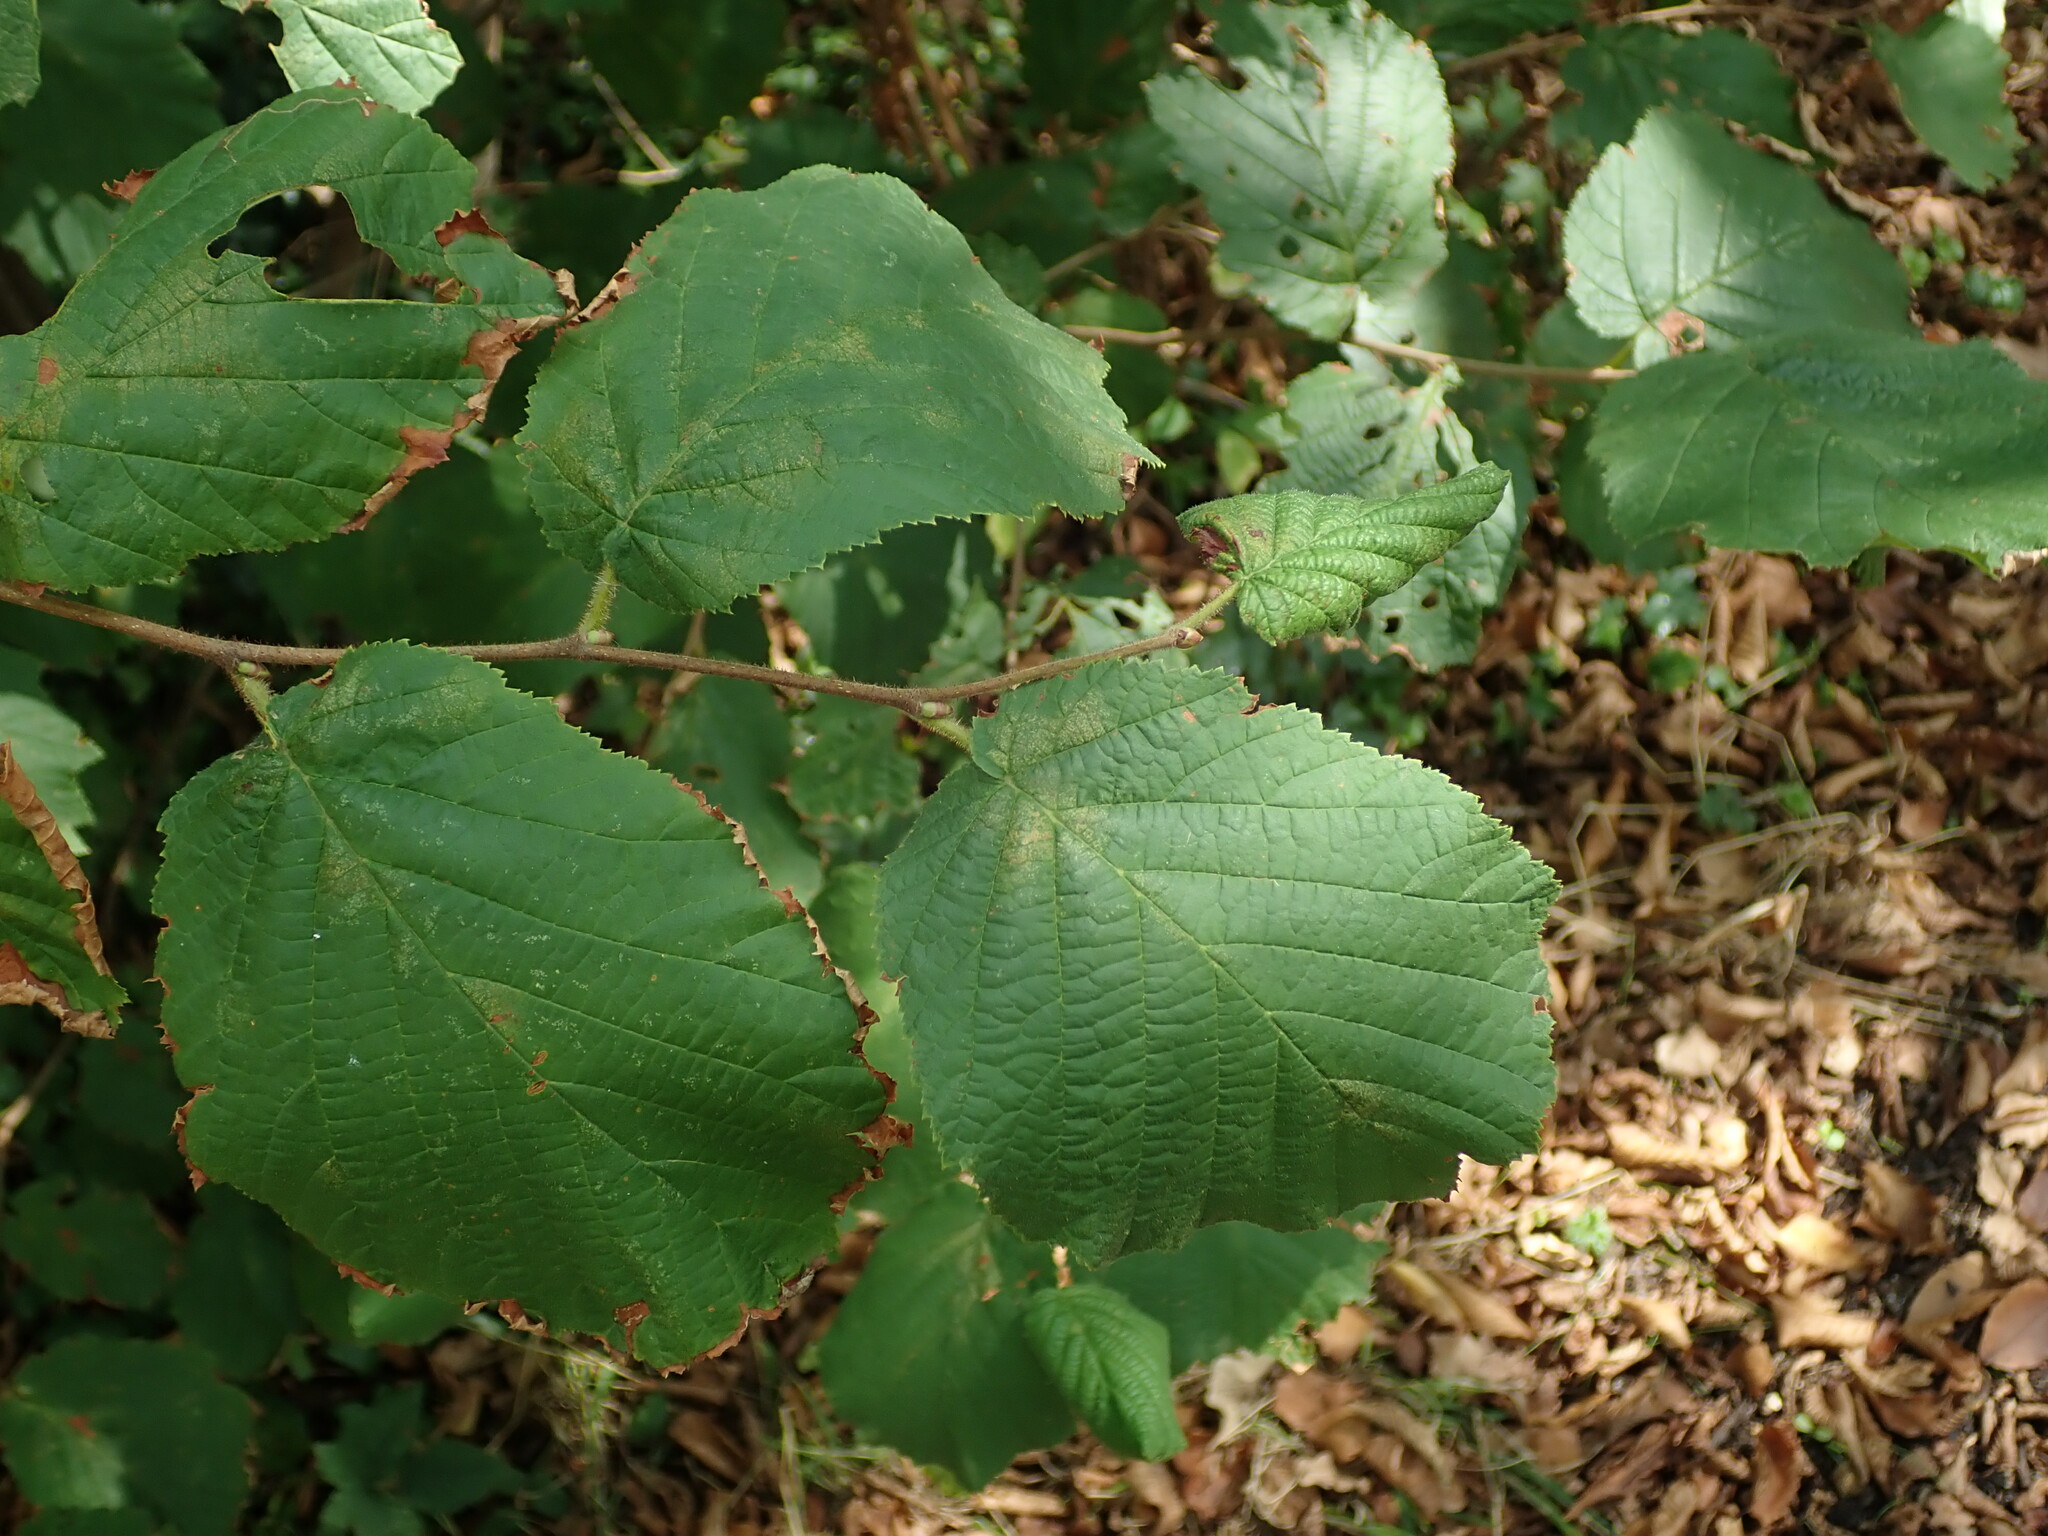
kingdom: Plantae
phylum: Tracheophyta
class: Magnoliopsida
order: Fagales
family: Betulaceae
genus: Corylus
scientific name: Corylus avellana
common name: European hazel
